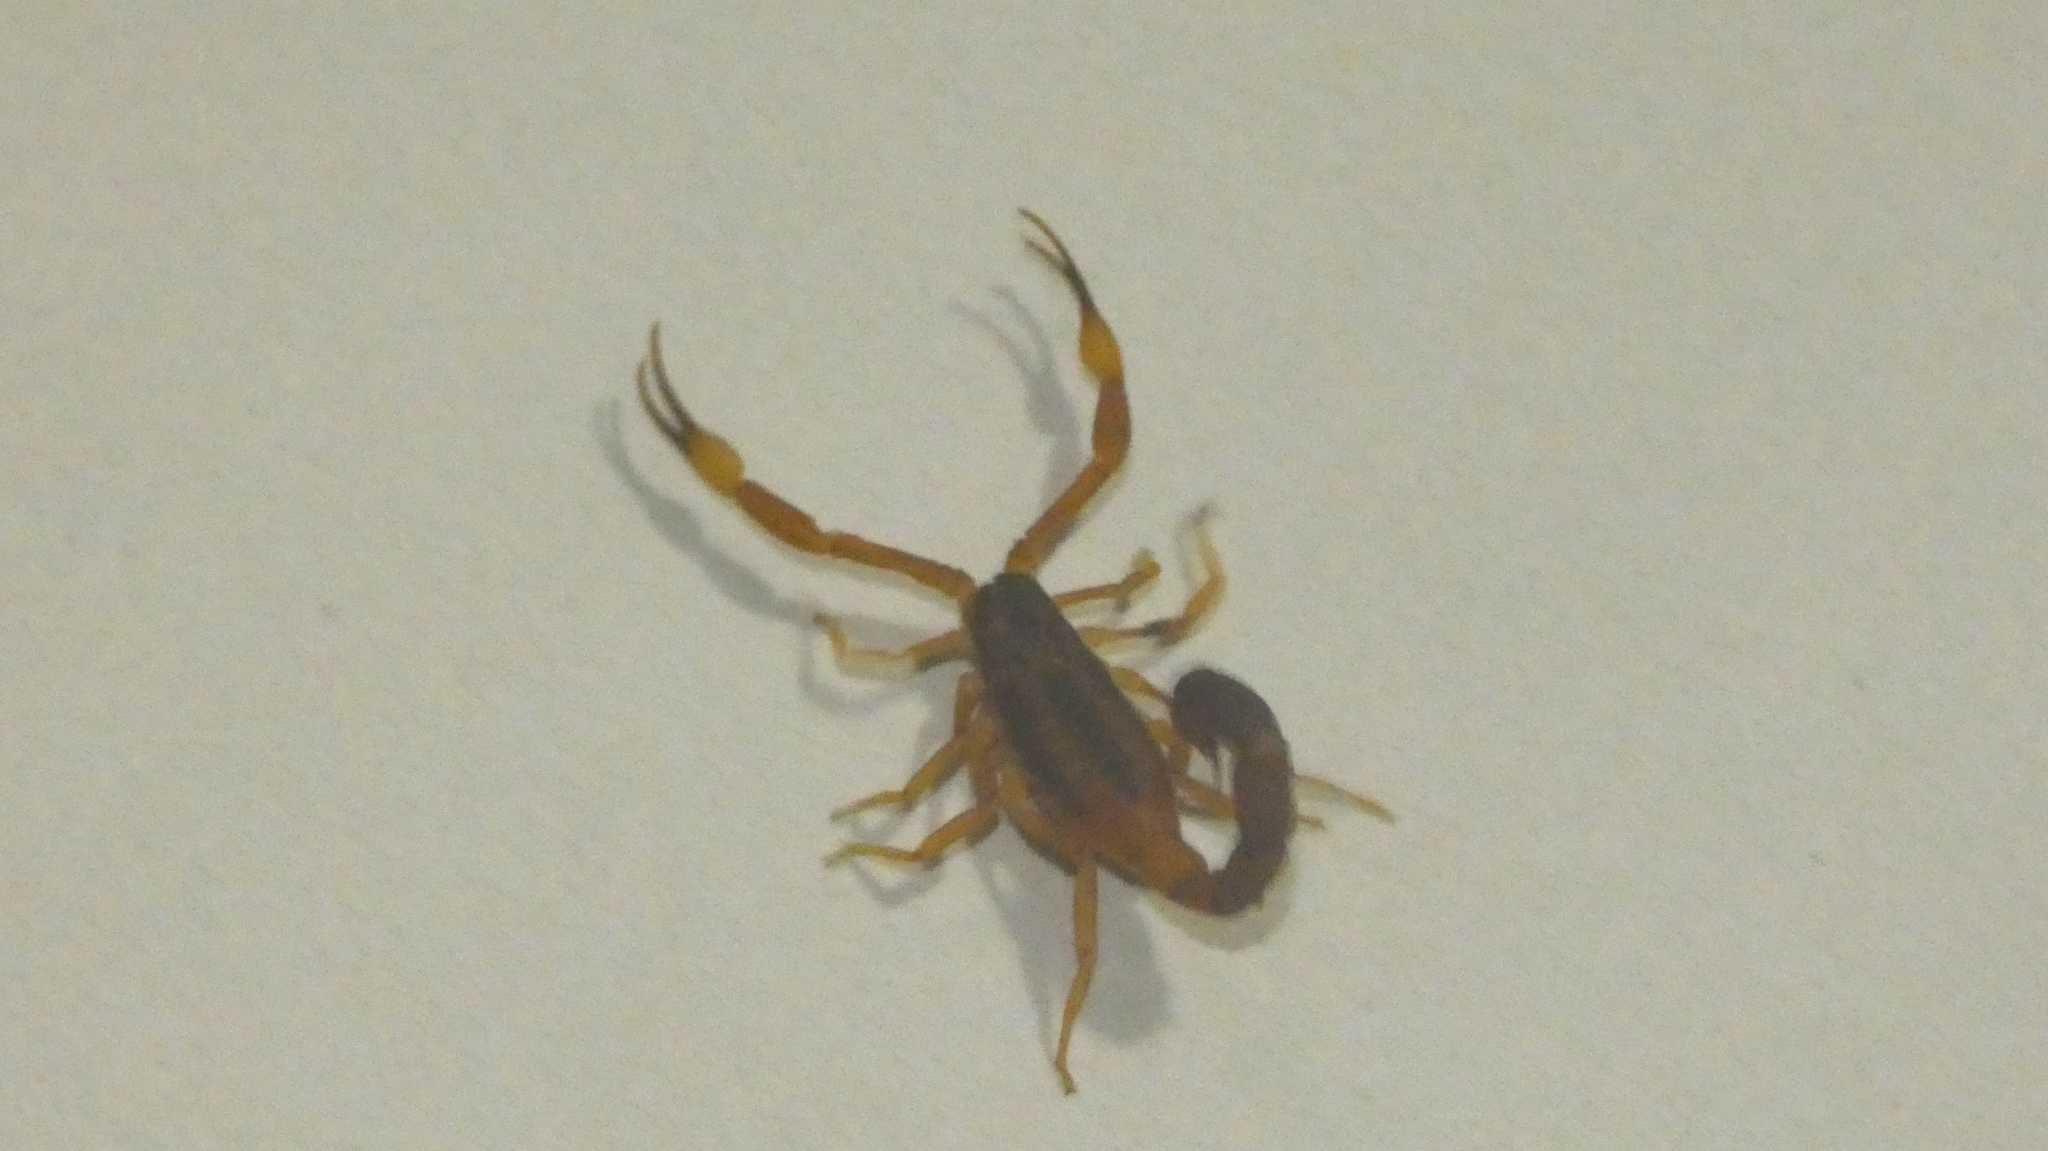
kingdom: Animalia
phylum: Arthropoda
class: Arachnida
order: Scorpiones
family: Buthidae
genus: Tityus
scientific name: Tityus carrilloi
